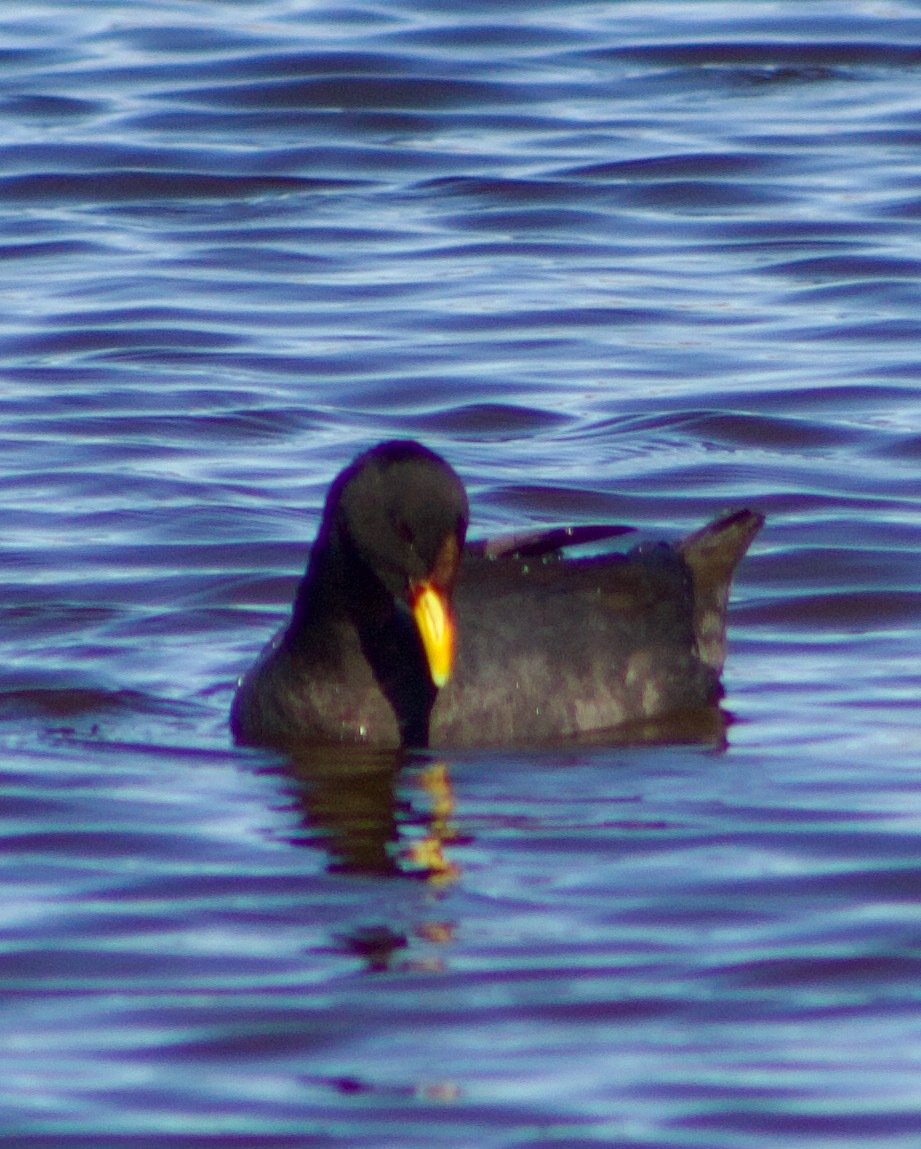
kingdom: Animalia
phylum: Chordata
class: Aves
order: Gruiformes
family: Rallidae
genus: Fulica
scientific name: Fulica rufifrons
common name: Red-fronted coot
